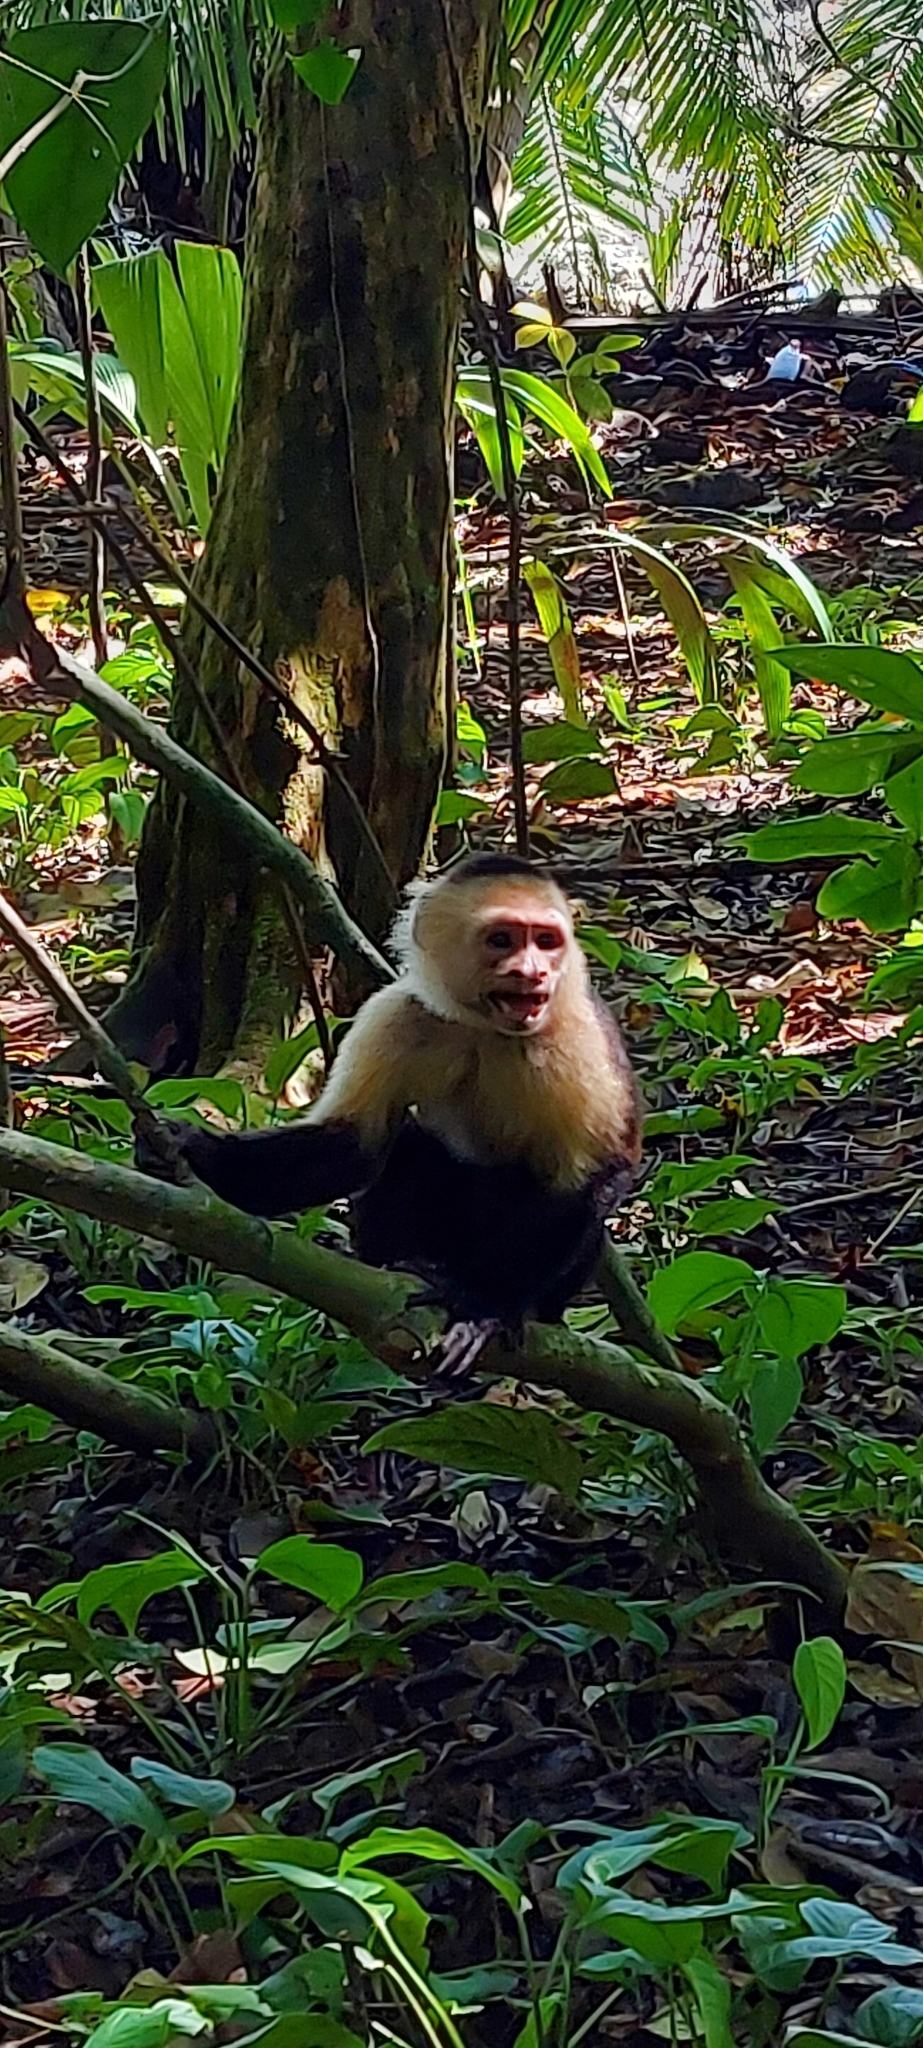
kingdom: Animalia
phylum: Chordata
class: Mammalia
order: Primates
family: Cebidae
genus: Cebus
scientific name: Cebus imitator
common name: Panamanian white-faced capuchin
